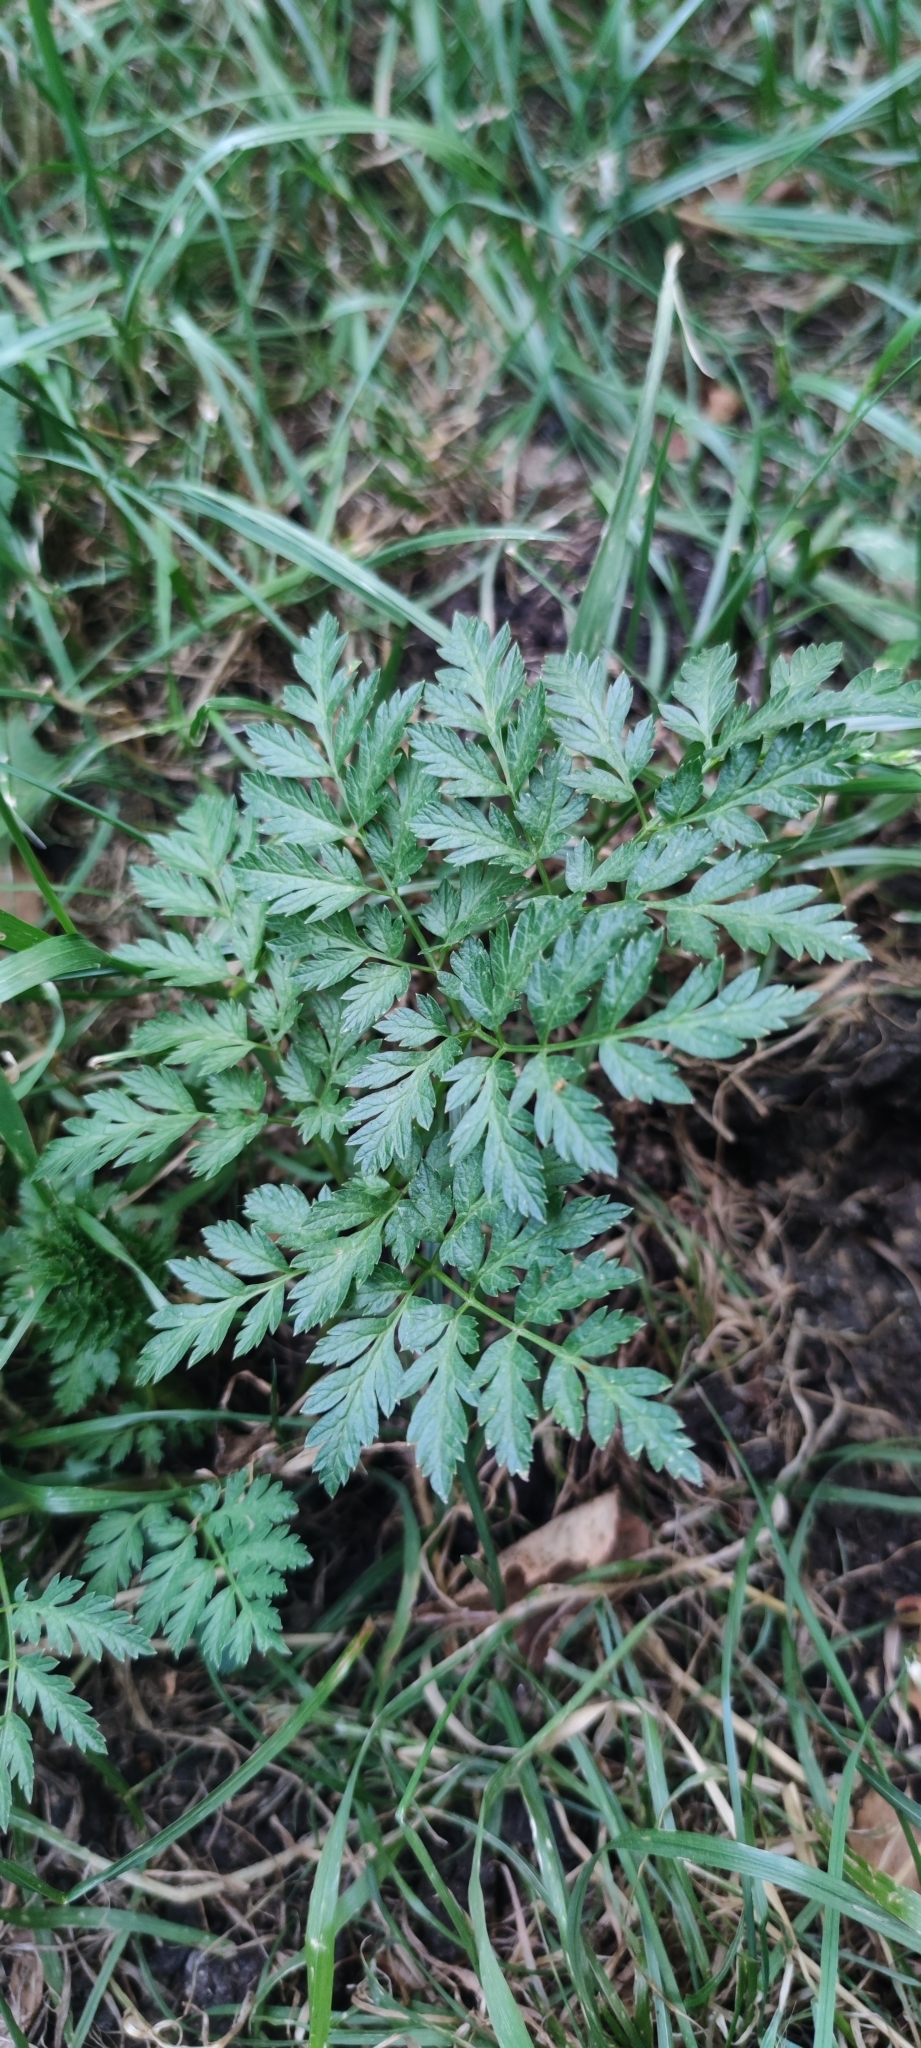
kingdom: Plantae
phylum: Tracheophyta
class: Magnoliopsida
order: Apiales
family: Apiaceae
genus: Anthriscus
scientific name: Anthriscus sylvestris
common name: Cow parsley
